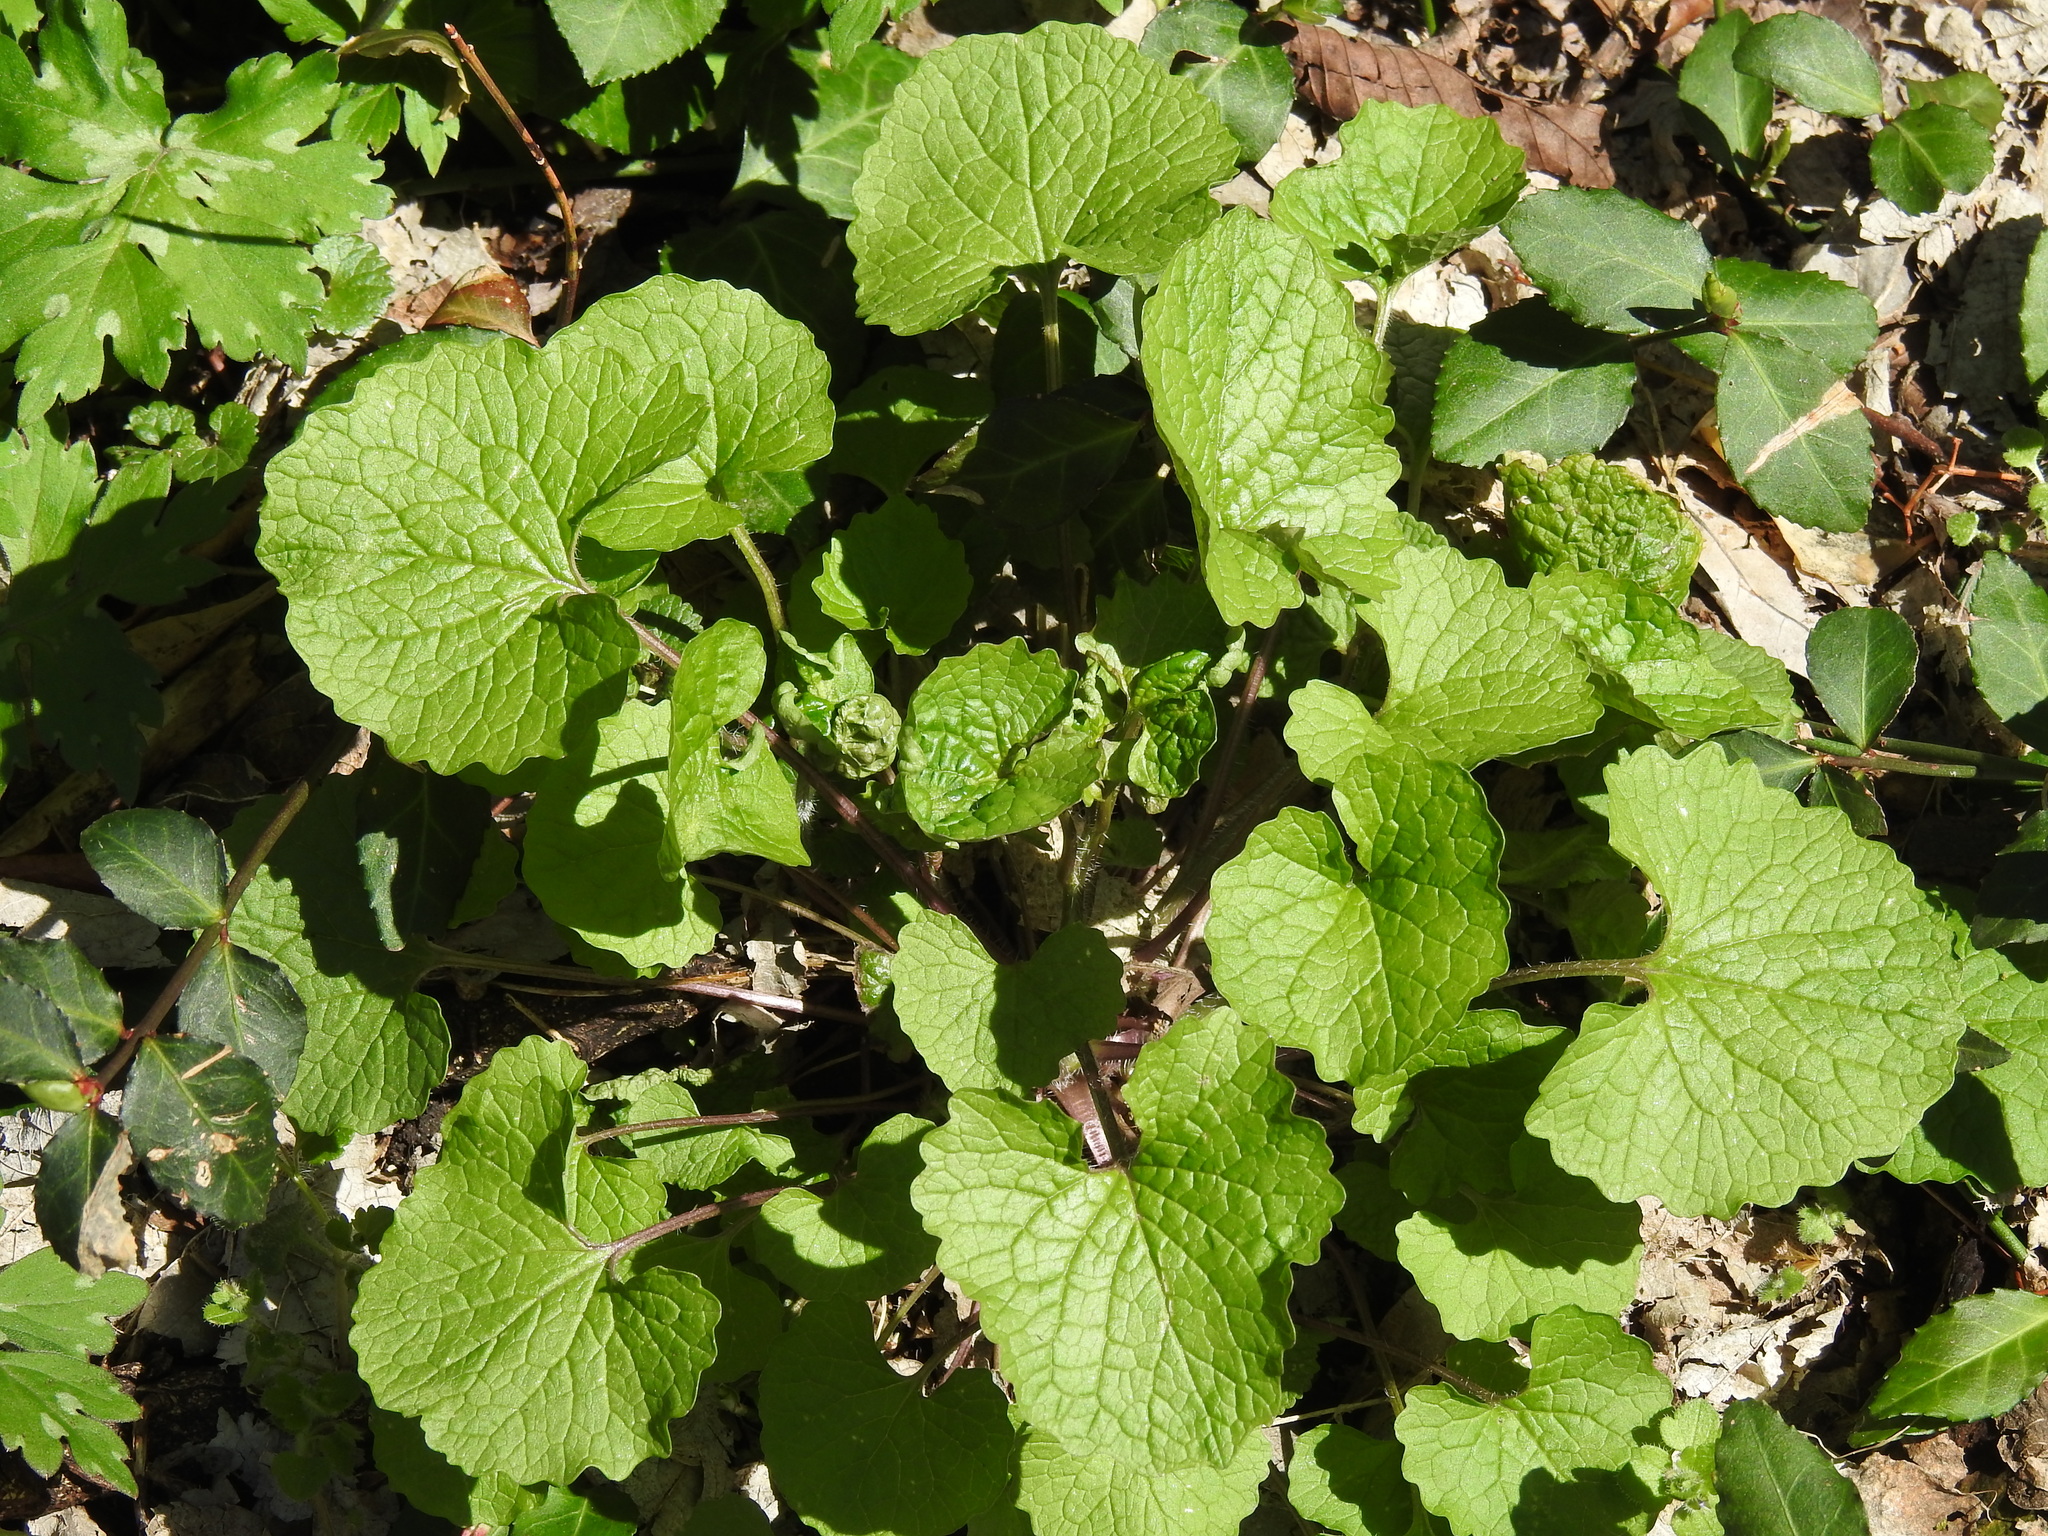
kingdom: Plantae
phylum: Tracheophyta
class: Magnoliopsida
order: Brassicales
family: Brassicaceae
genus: Alliaria
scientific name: Alliaria petiolata
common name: Garlic mustard
